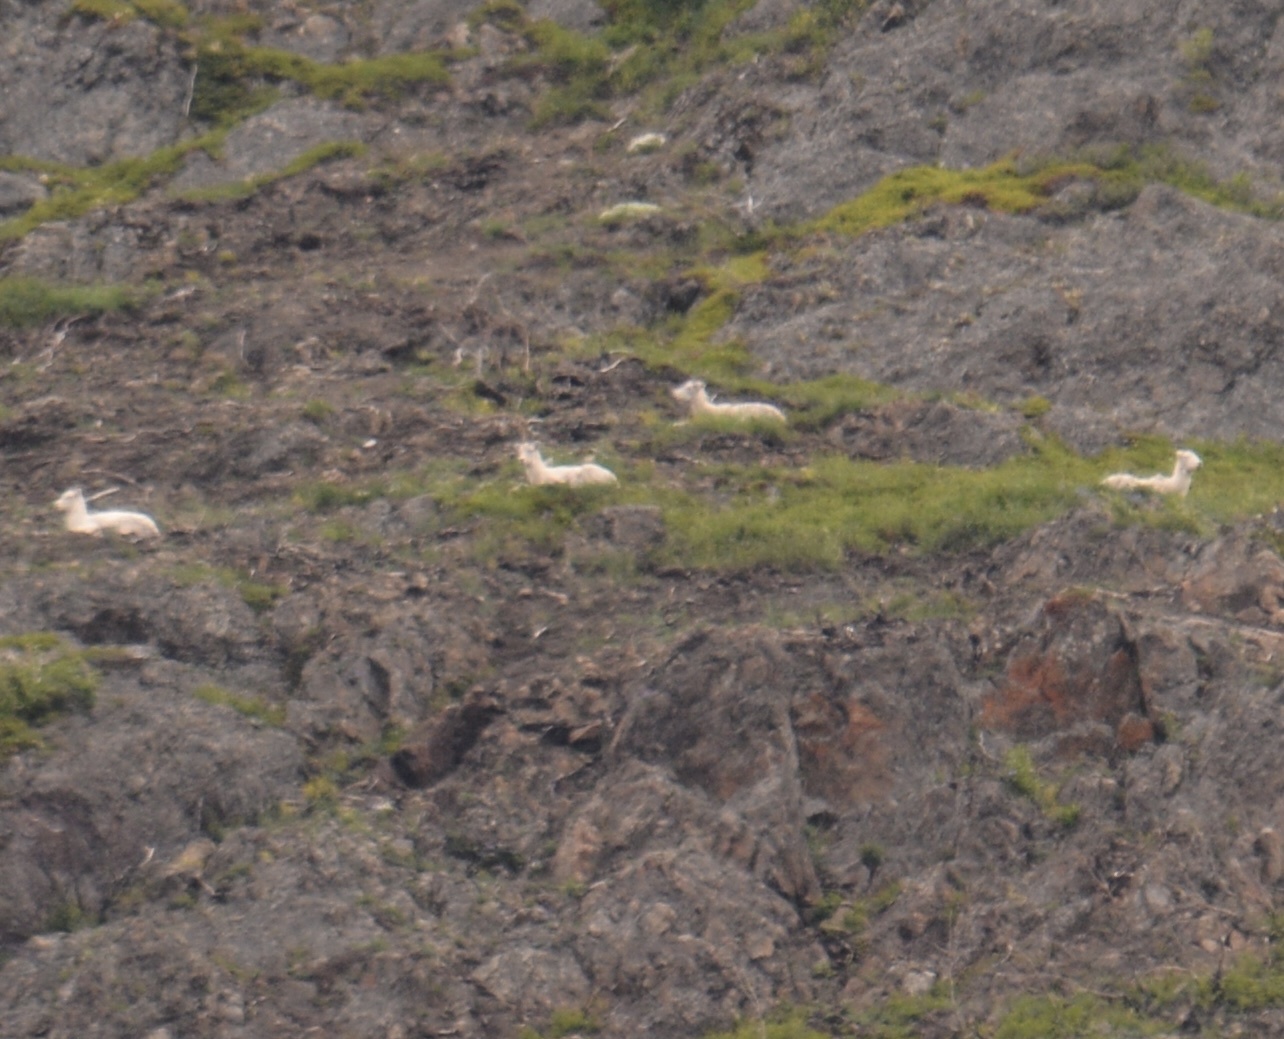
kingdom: Animalia
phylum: Chordata
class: Mammalia
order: Artiodactyla
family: Bovidae
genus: Ovis
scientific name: Ovis dalli
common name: Dall's sheep
